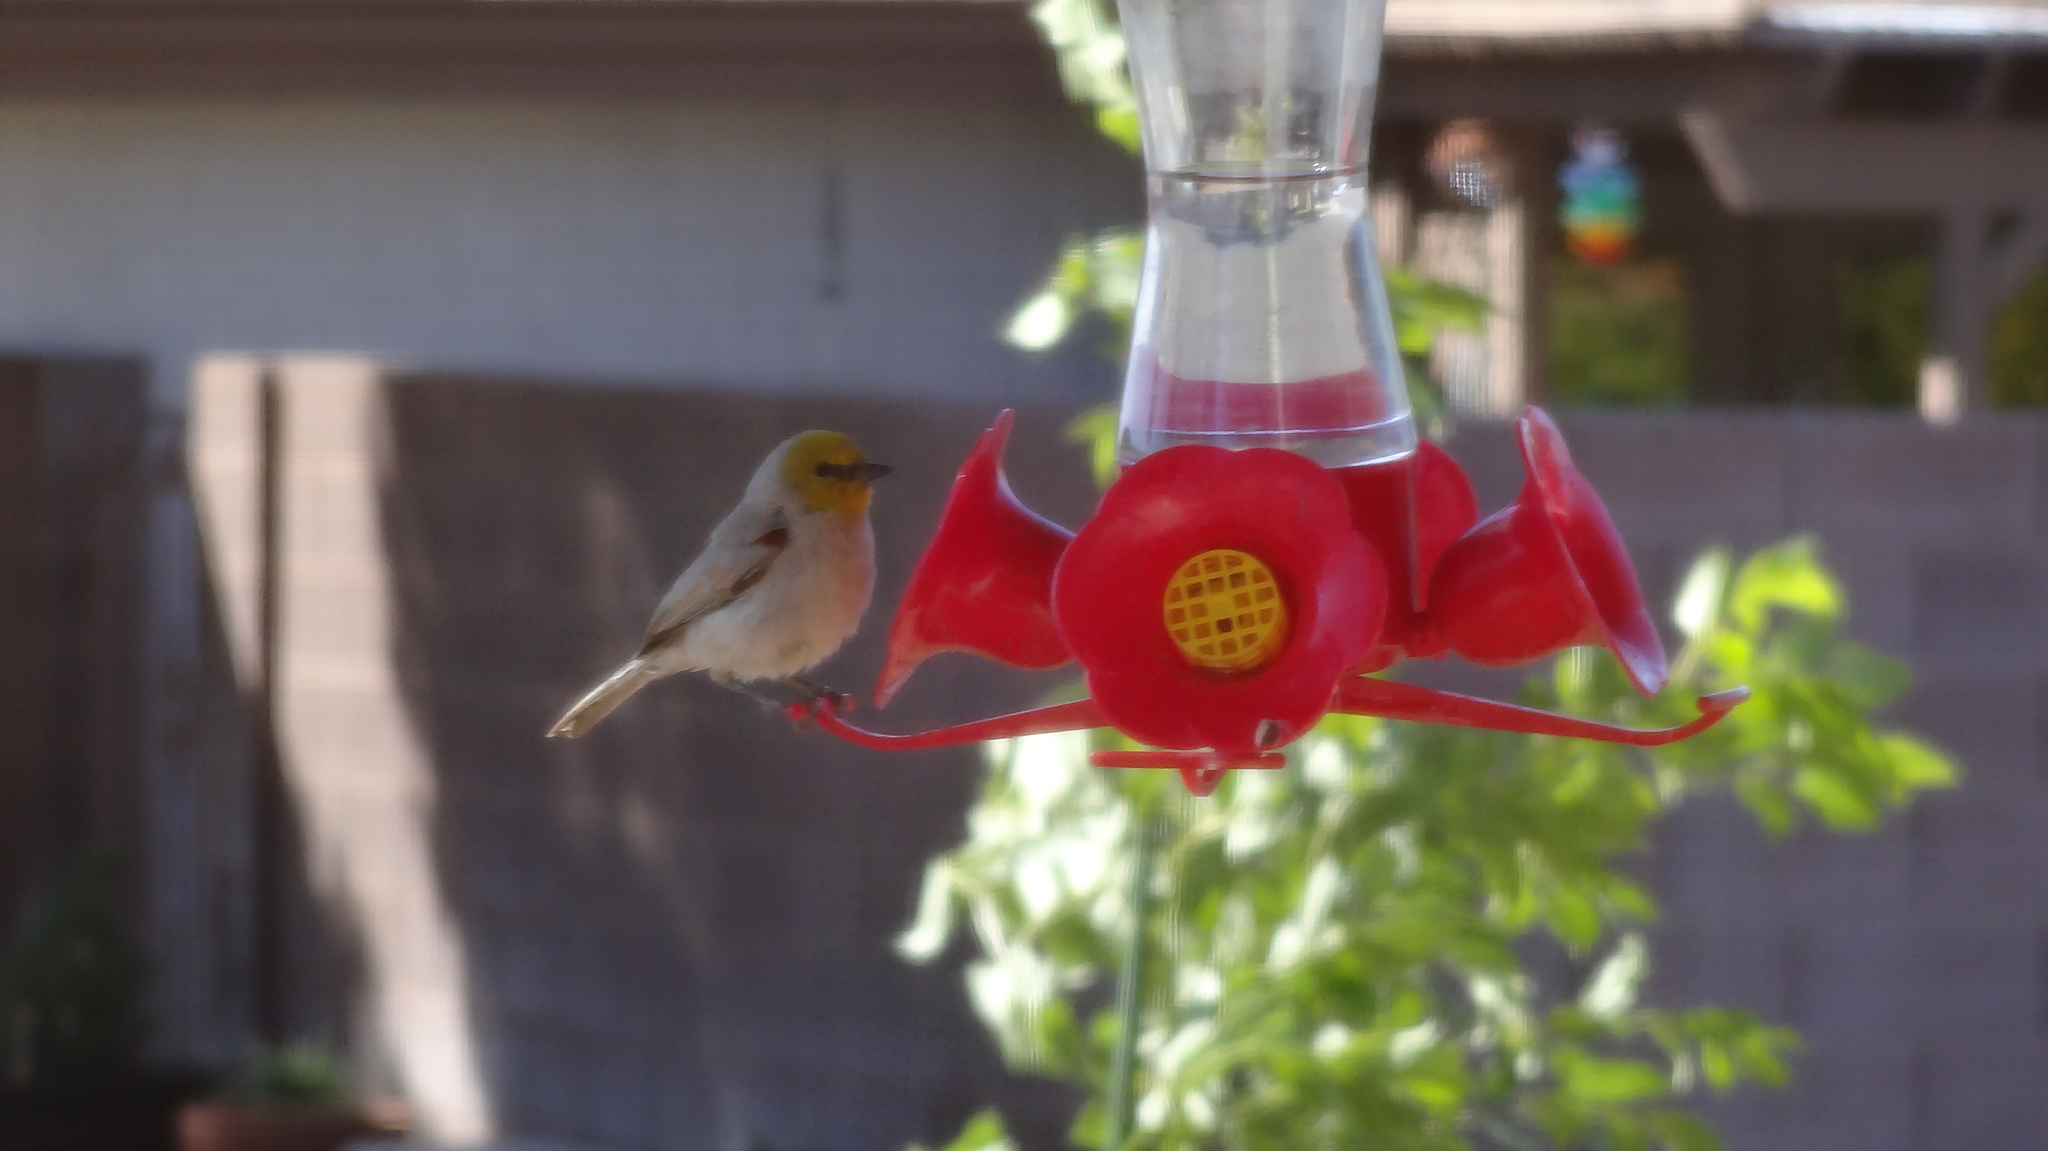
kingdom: Animalia
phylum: Chordata
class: Aves
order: Passeriformes
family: Remizidae
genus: Auriparus
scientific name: Auriparus flaviceps
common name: Verdin
